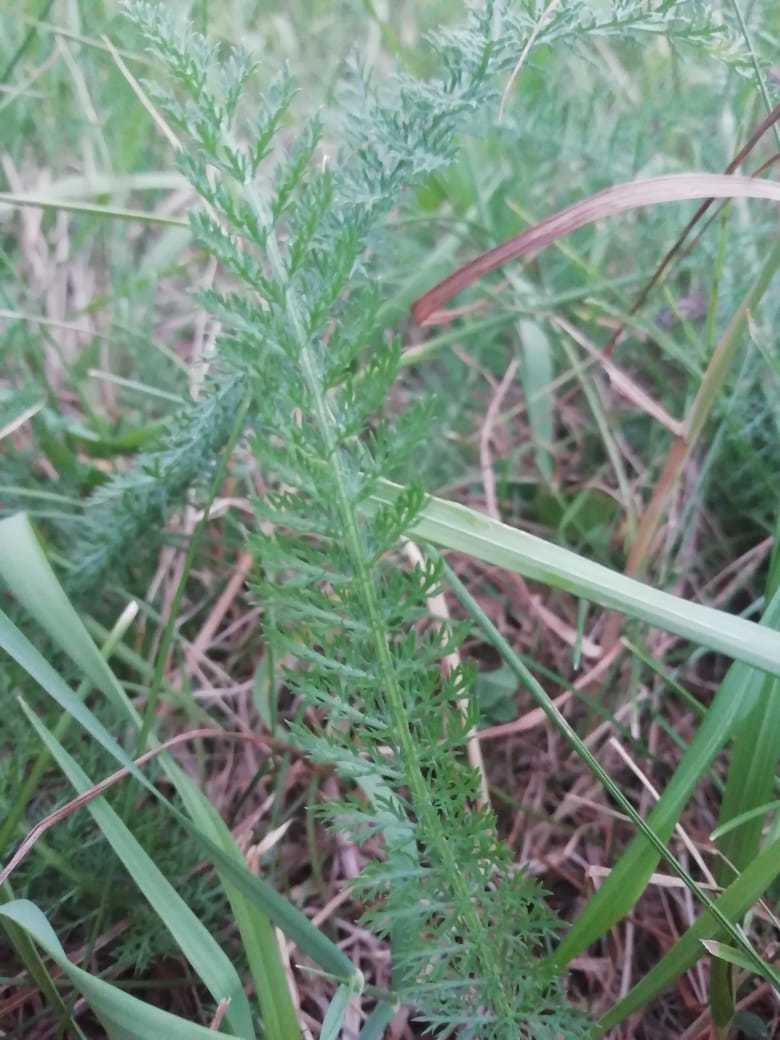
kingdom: Plantae
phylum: Tracheophyta
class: Magnoliopsida
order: Asterales
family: Asteraceae
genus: Achillea
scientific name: Achillea millefolium
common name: Yarrow
